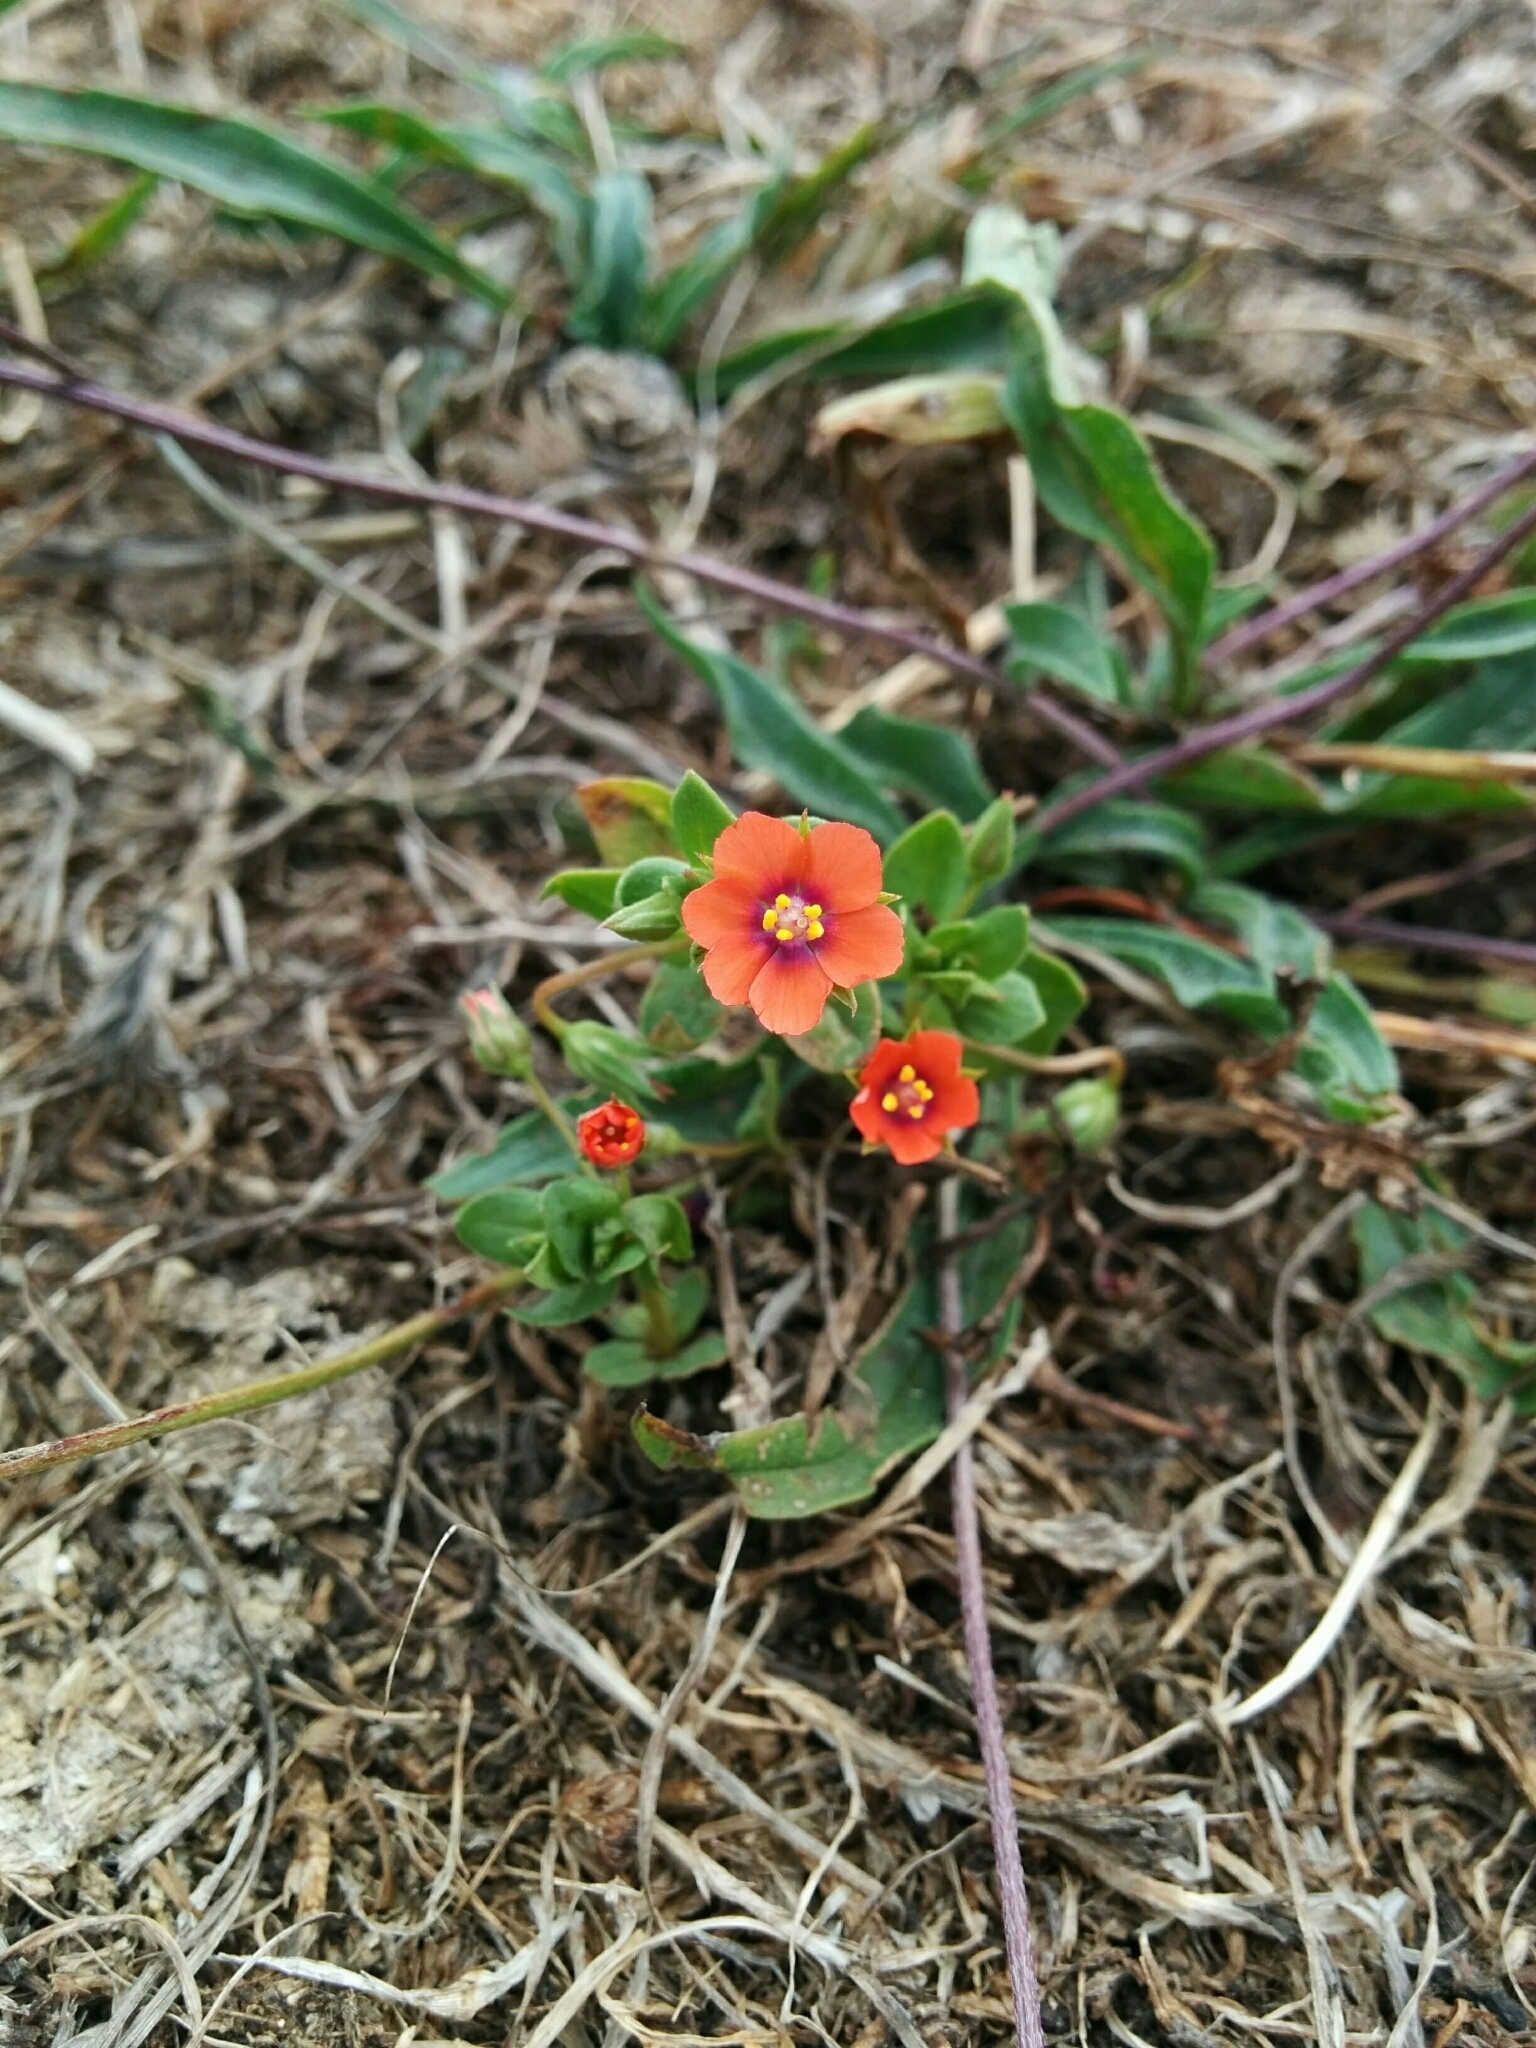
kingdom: Plantae
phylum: Tracheophyta
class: Magnoliopsida
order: Ericales
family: Primulaceae
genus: Lysimachia
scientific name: Lysimachia arvensis
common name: Scarlet pimpernel
